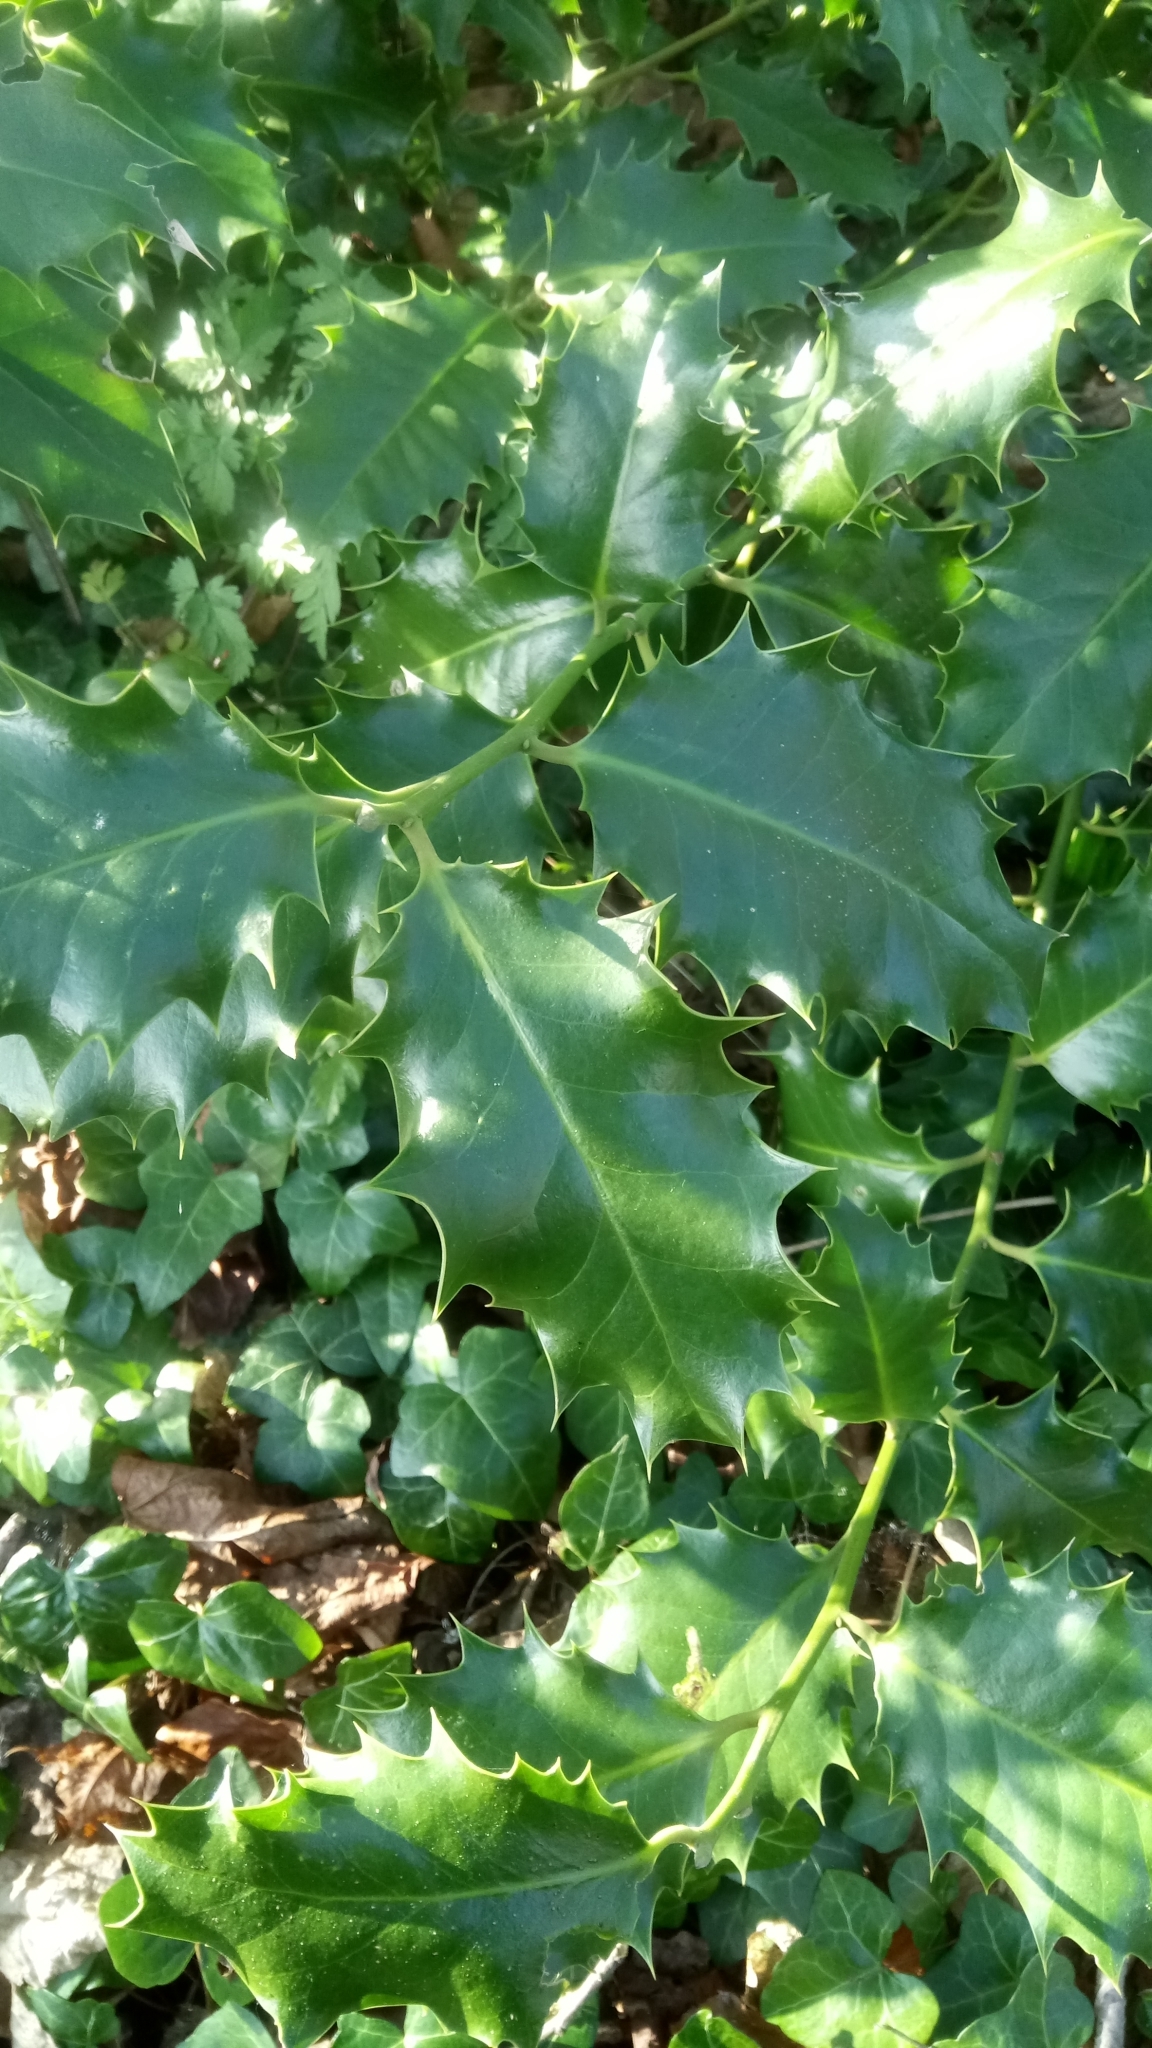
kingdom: Plantae
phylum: Tracheophyta
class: Magnoliopsida
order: Aquifoliales
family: Aquifoliaceae
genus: Ilex
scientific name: Ilex aquifolium
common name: English holly
